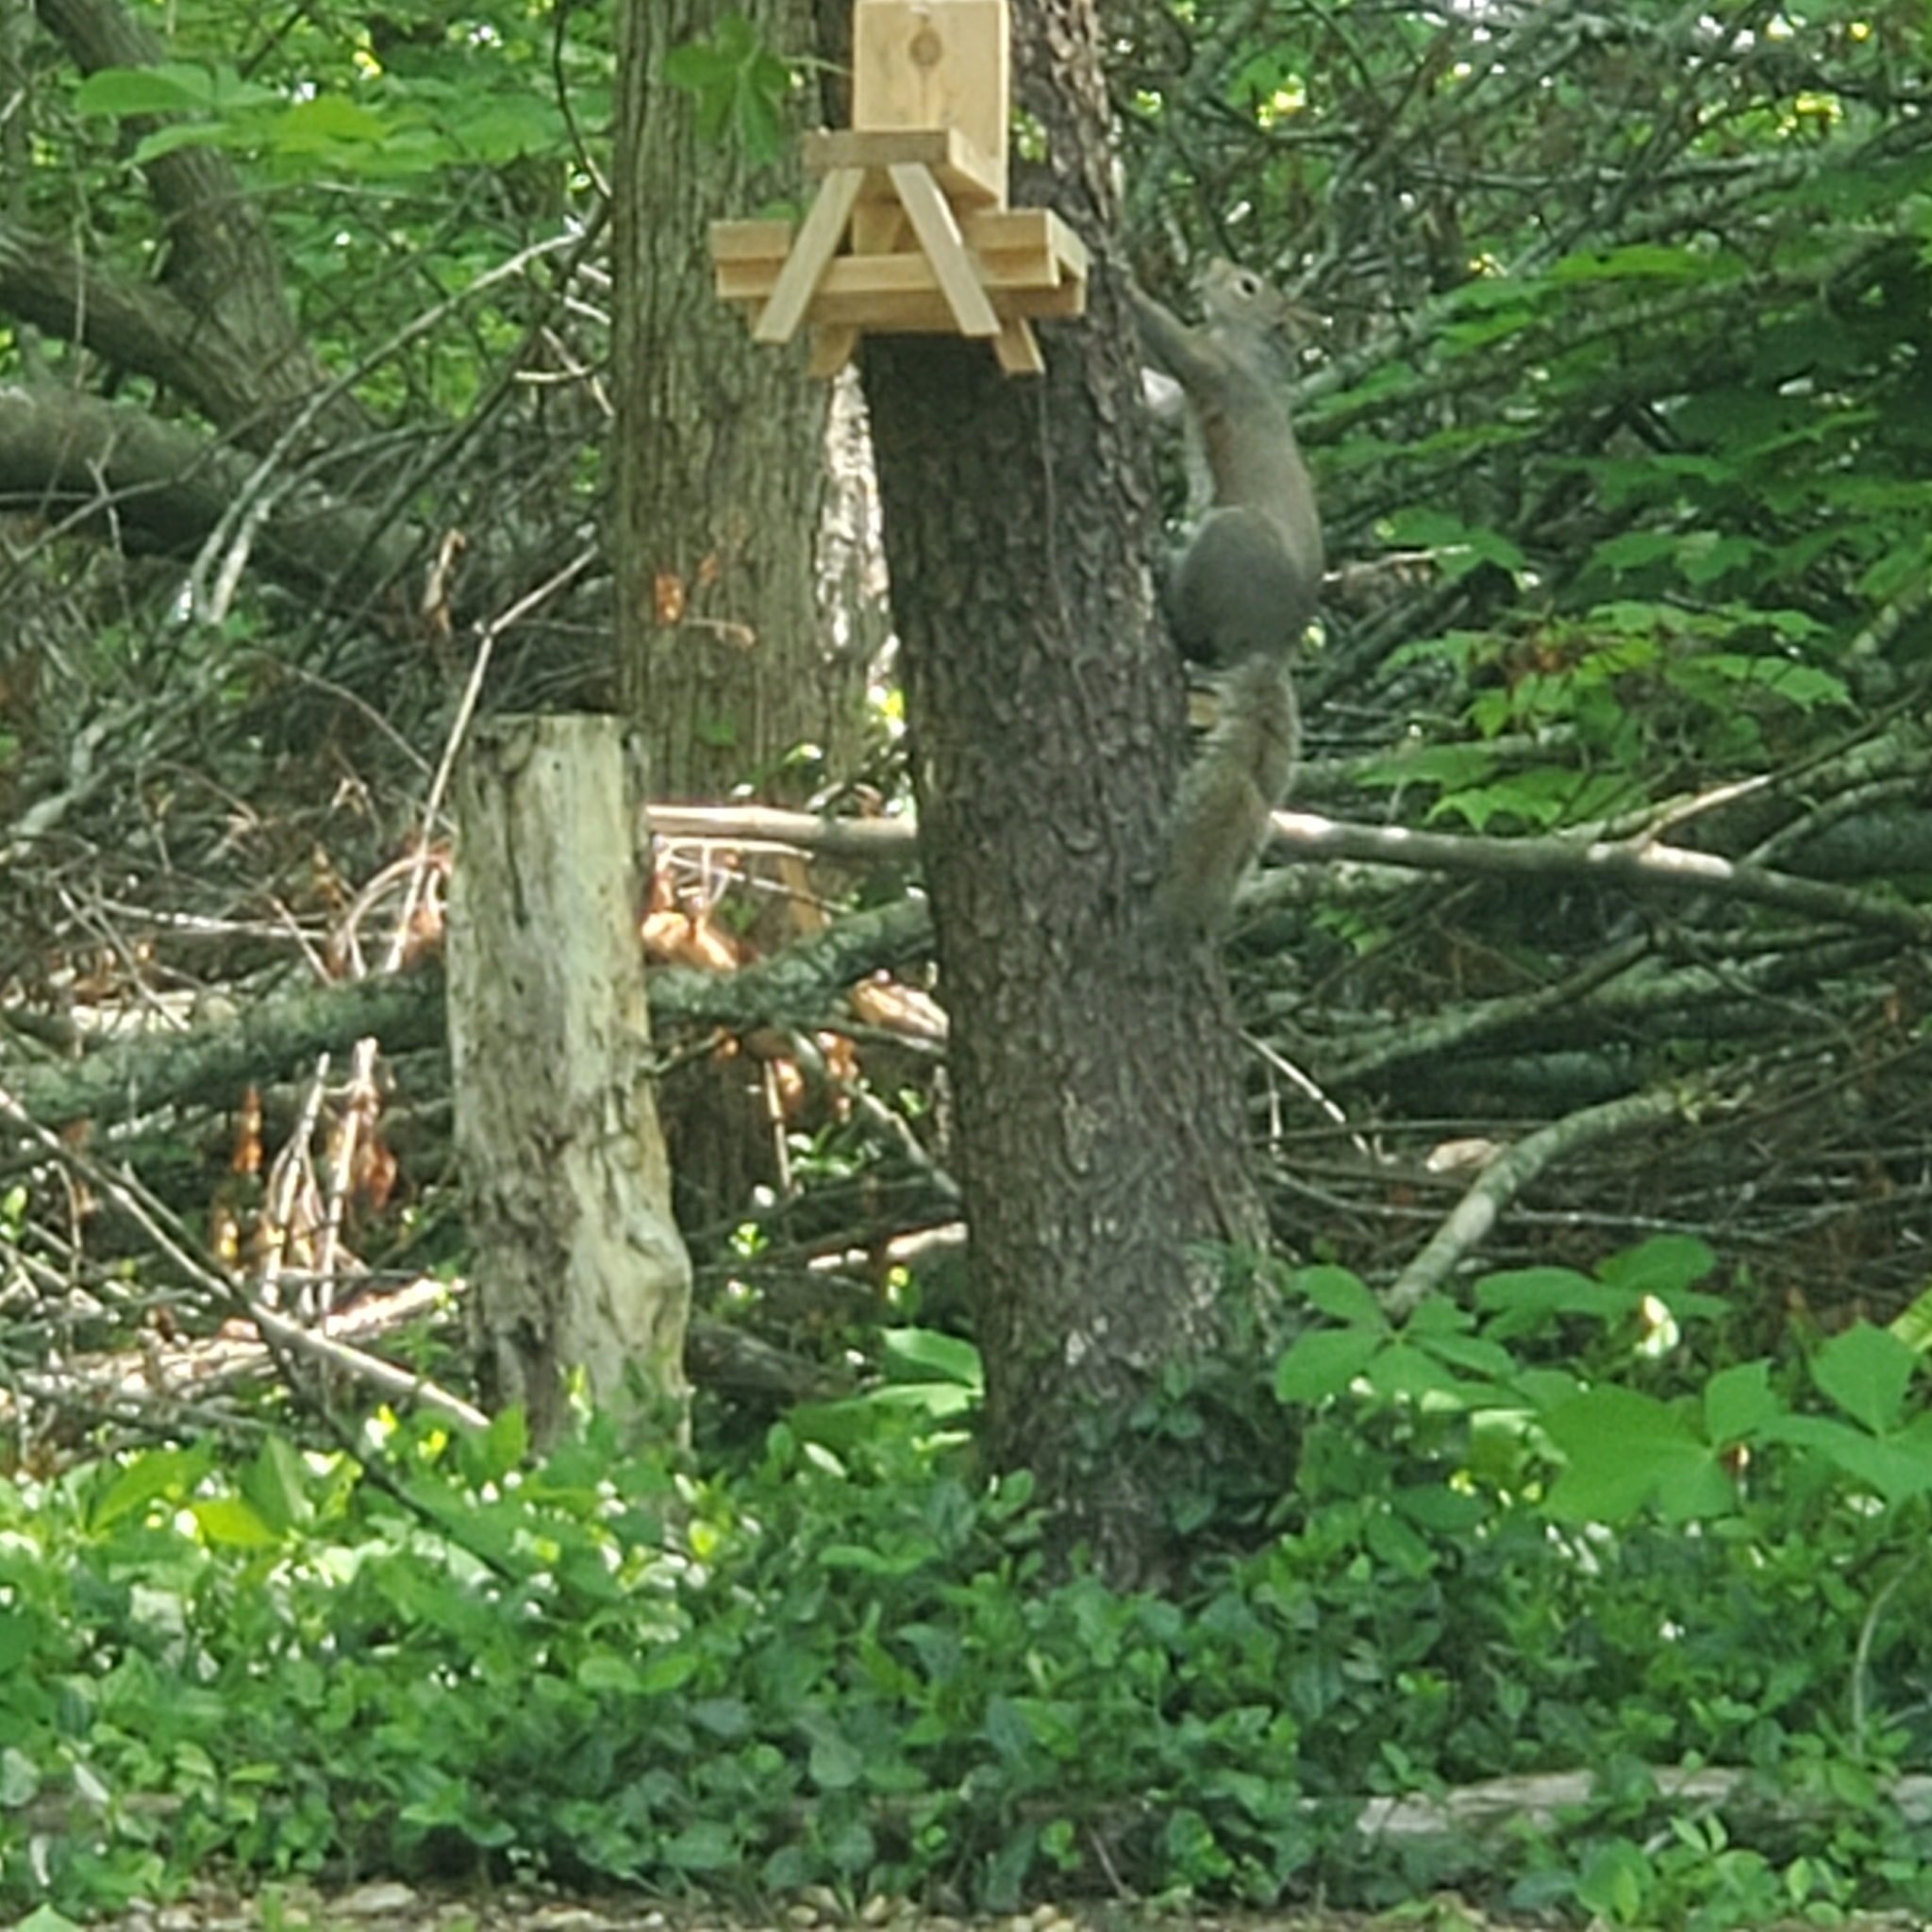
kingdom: Animalia
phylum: Chordata
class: Mammalia
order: Rodentia
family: Sciuridae
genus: Sciurus
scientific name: Sciurus carolinensis
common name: Eastern gray squirrel
